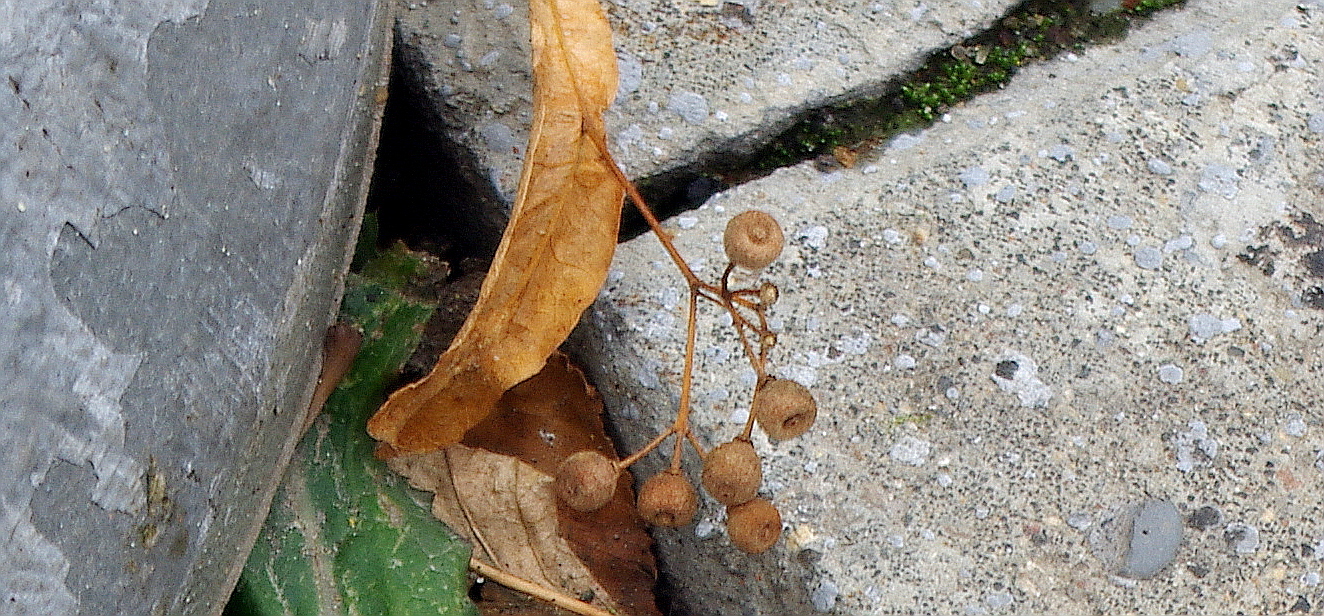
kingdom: Plantae
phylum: Tracheophyta
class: Magnoliopsida
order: Malvales
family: Malvaceae
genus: Tilia
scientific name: Tilia cordata
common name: Small-leaved lime
